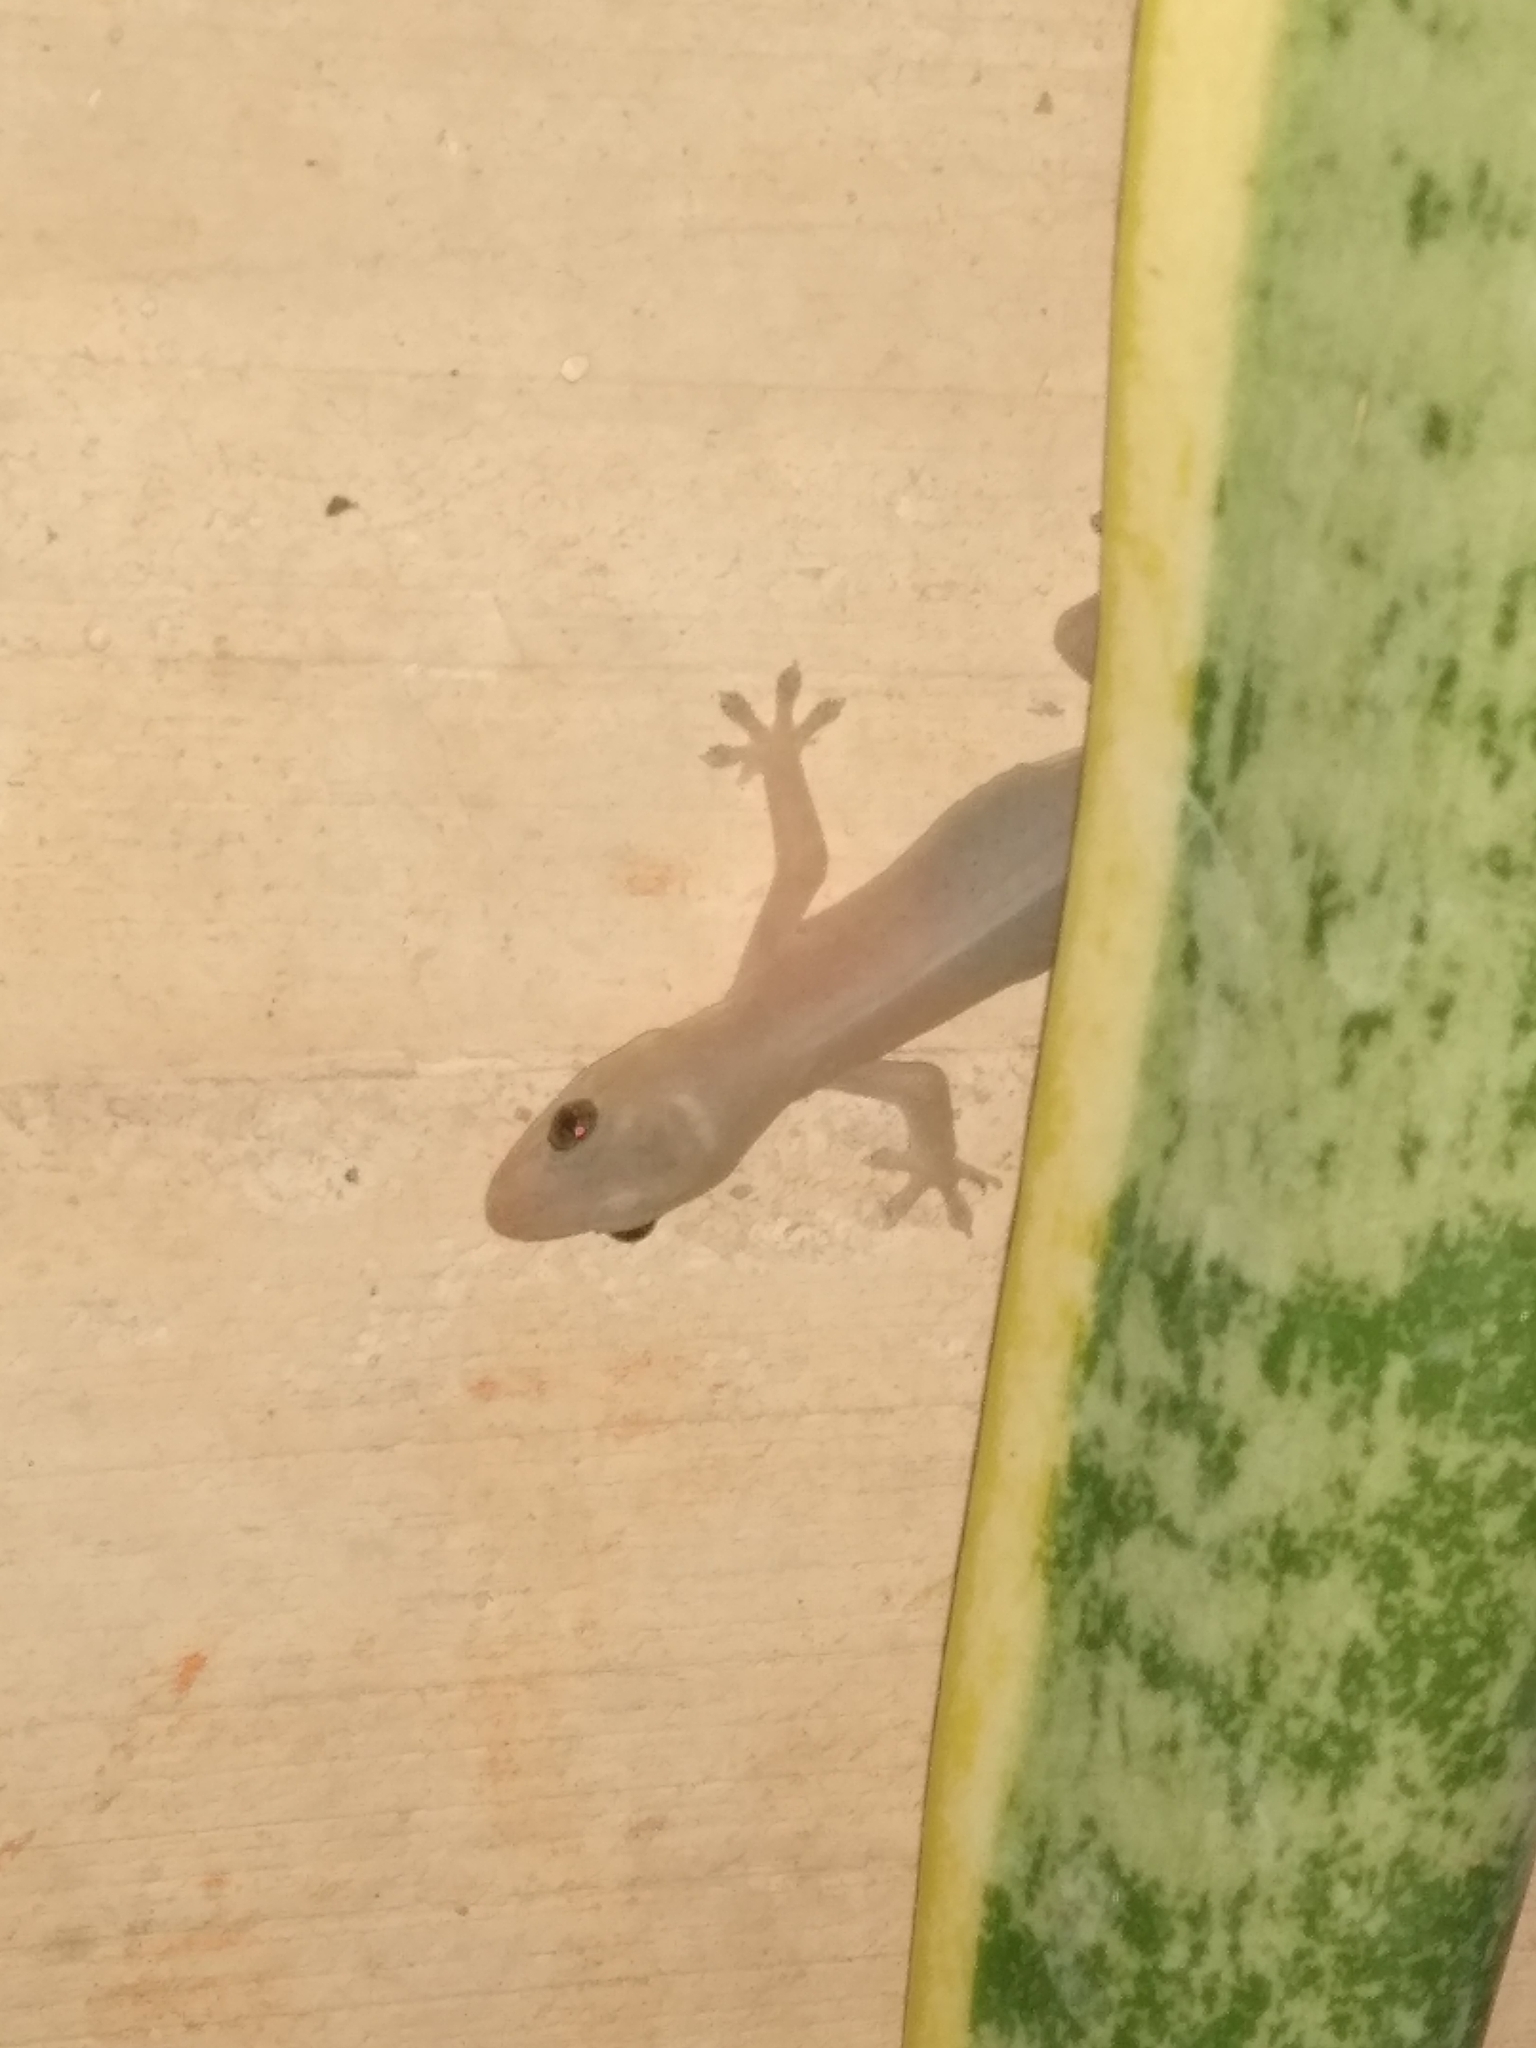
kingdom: Animalia
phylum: Chordata
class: Squamata
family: Gekkonidae
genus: Hemidactylus
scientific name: Hemidactylus frenatus
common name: Common house gecko
